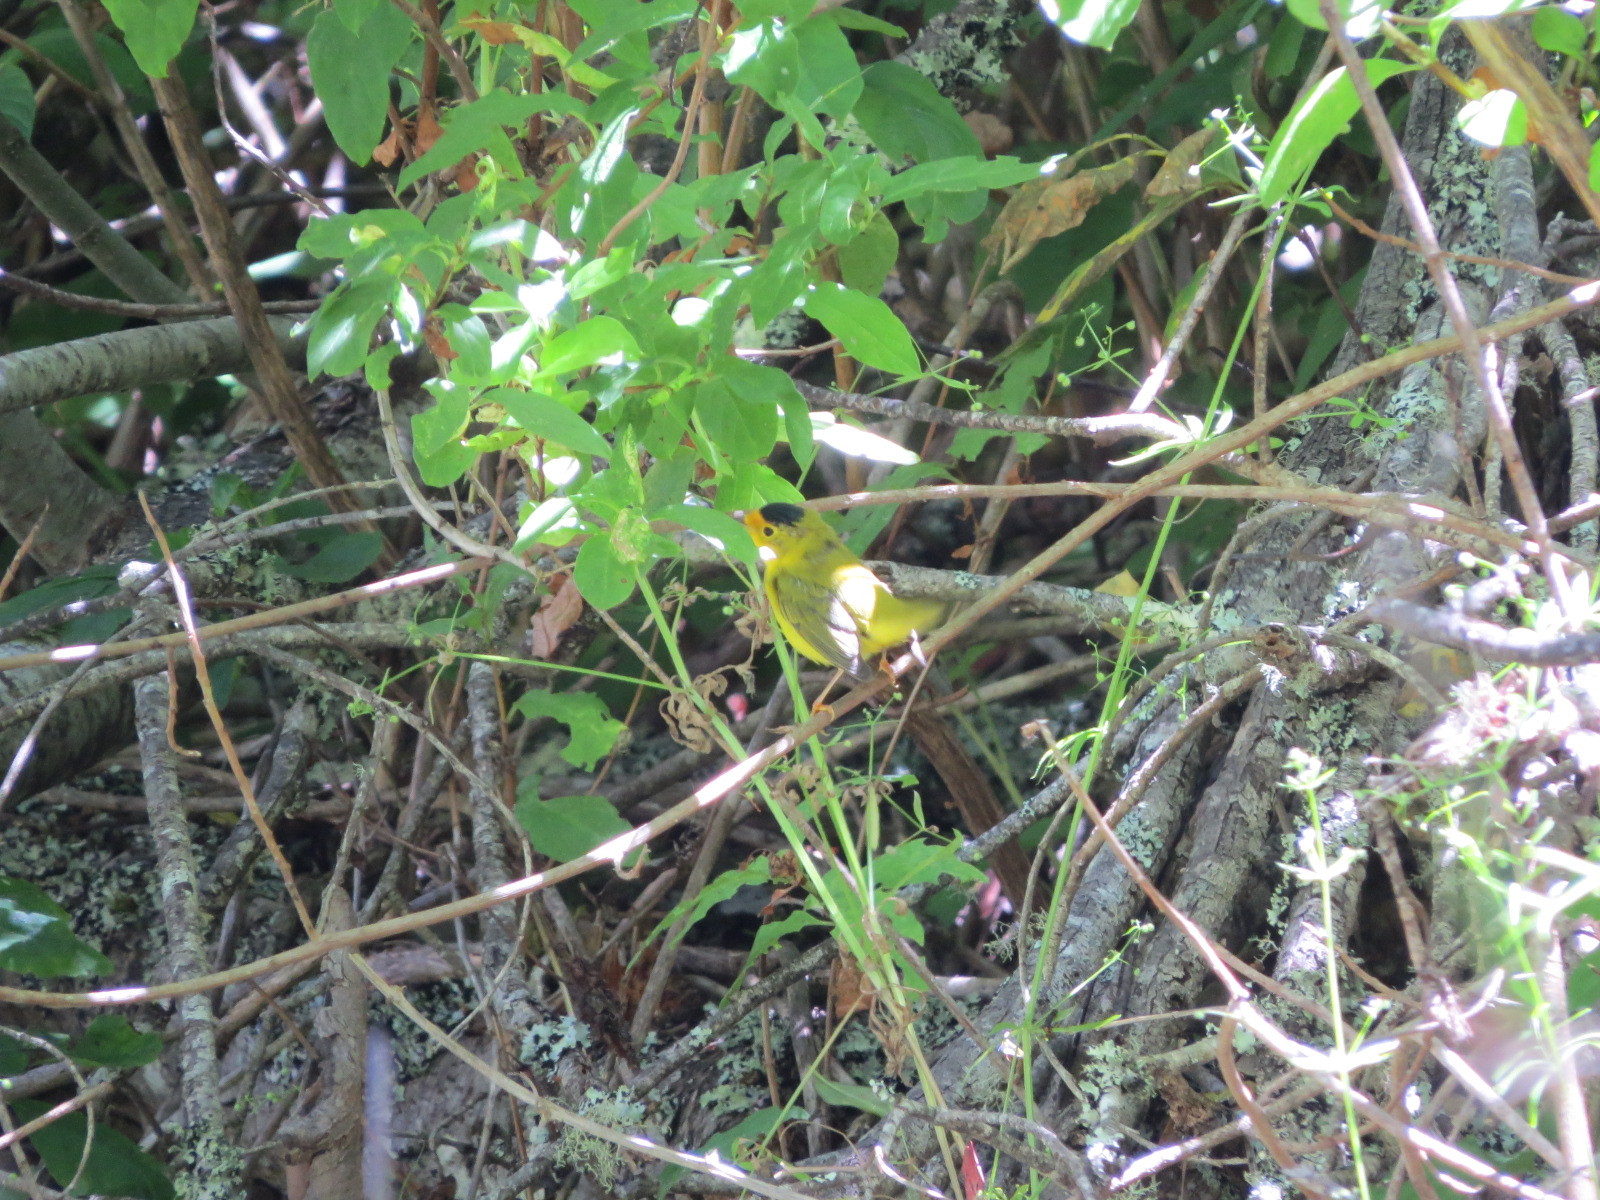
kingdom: Animalia
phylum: Chordata
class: Aves
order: Passeriformes
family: Parulidae
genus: Cardellina
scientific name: Cardellina pusilla
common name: Wilson's warbler
